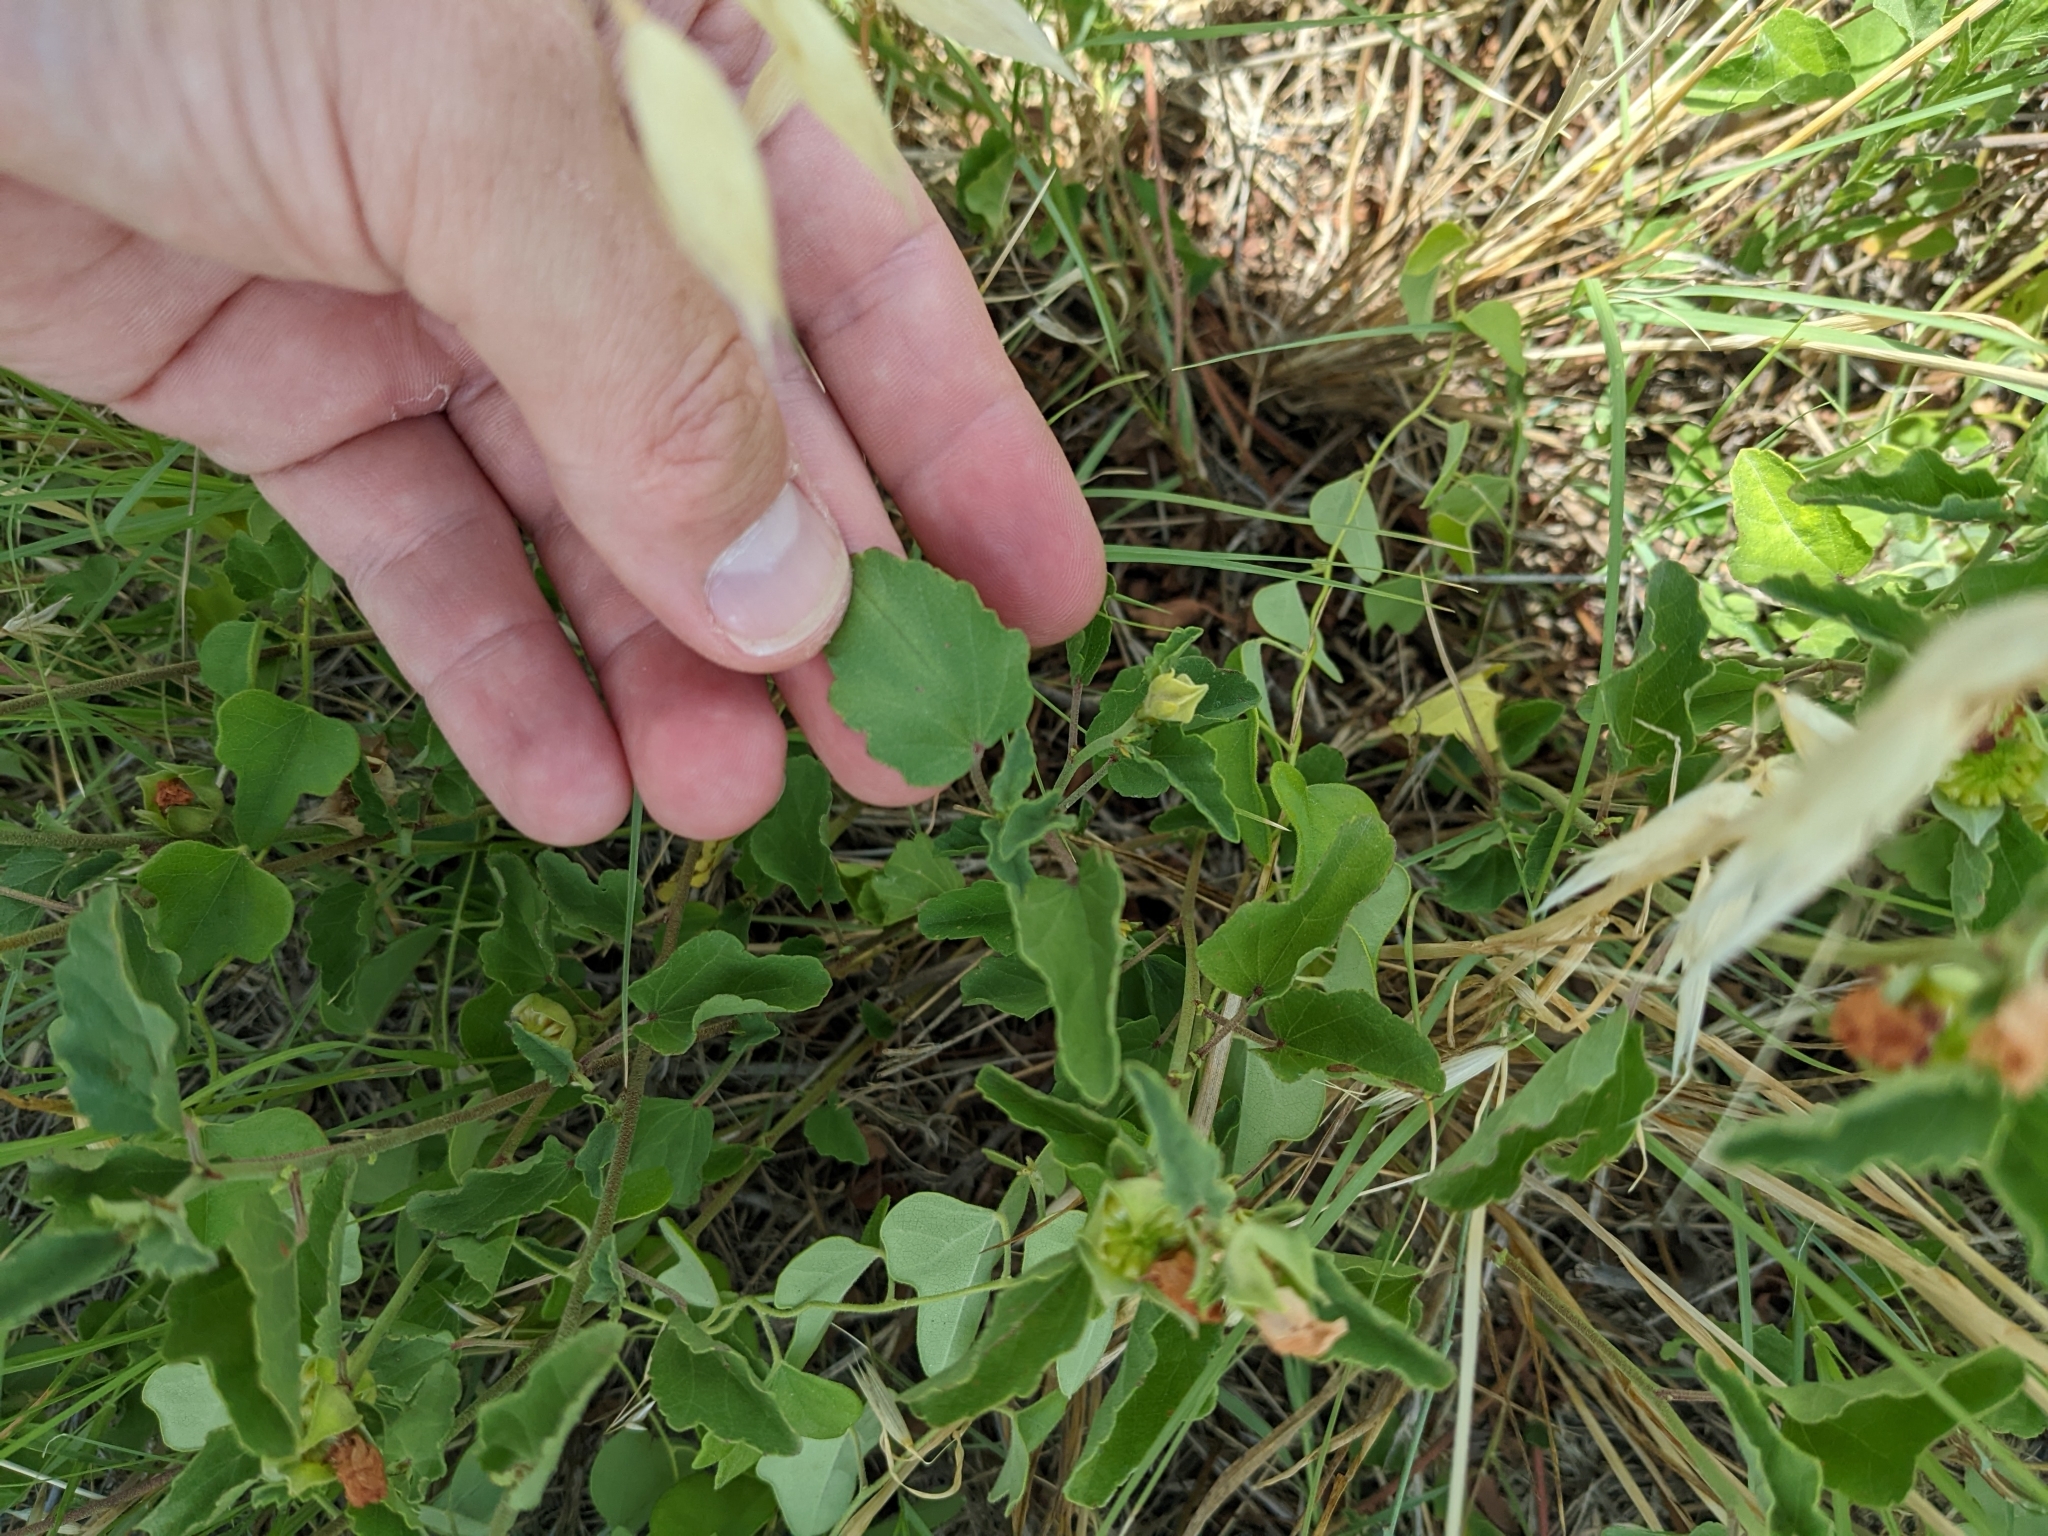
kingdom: Plantae
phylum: Tracheophyta
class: Magnoliopsida
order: Malvales
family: Malvaceae
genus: Malvastrum
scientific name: Malvastrum aurantiacum
